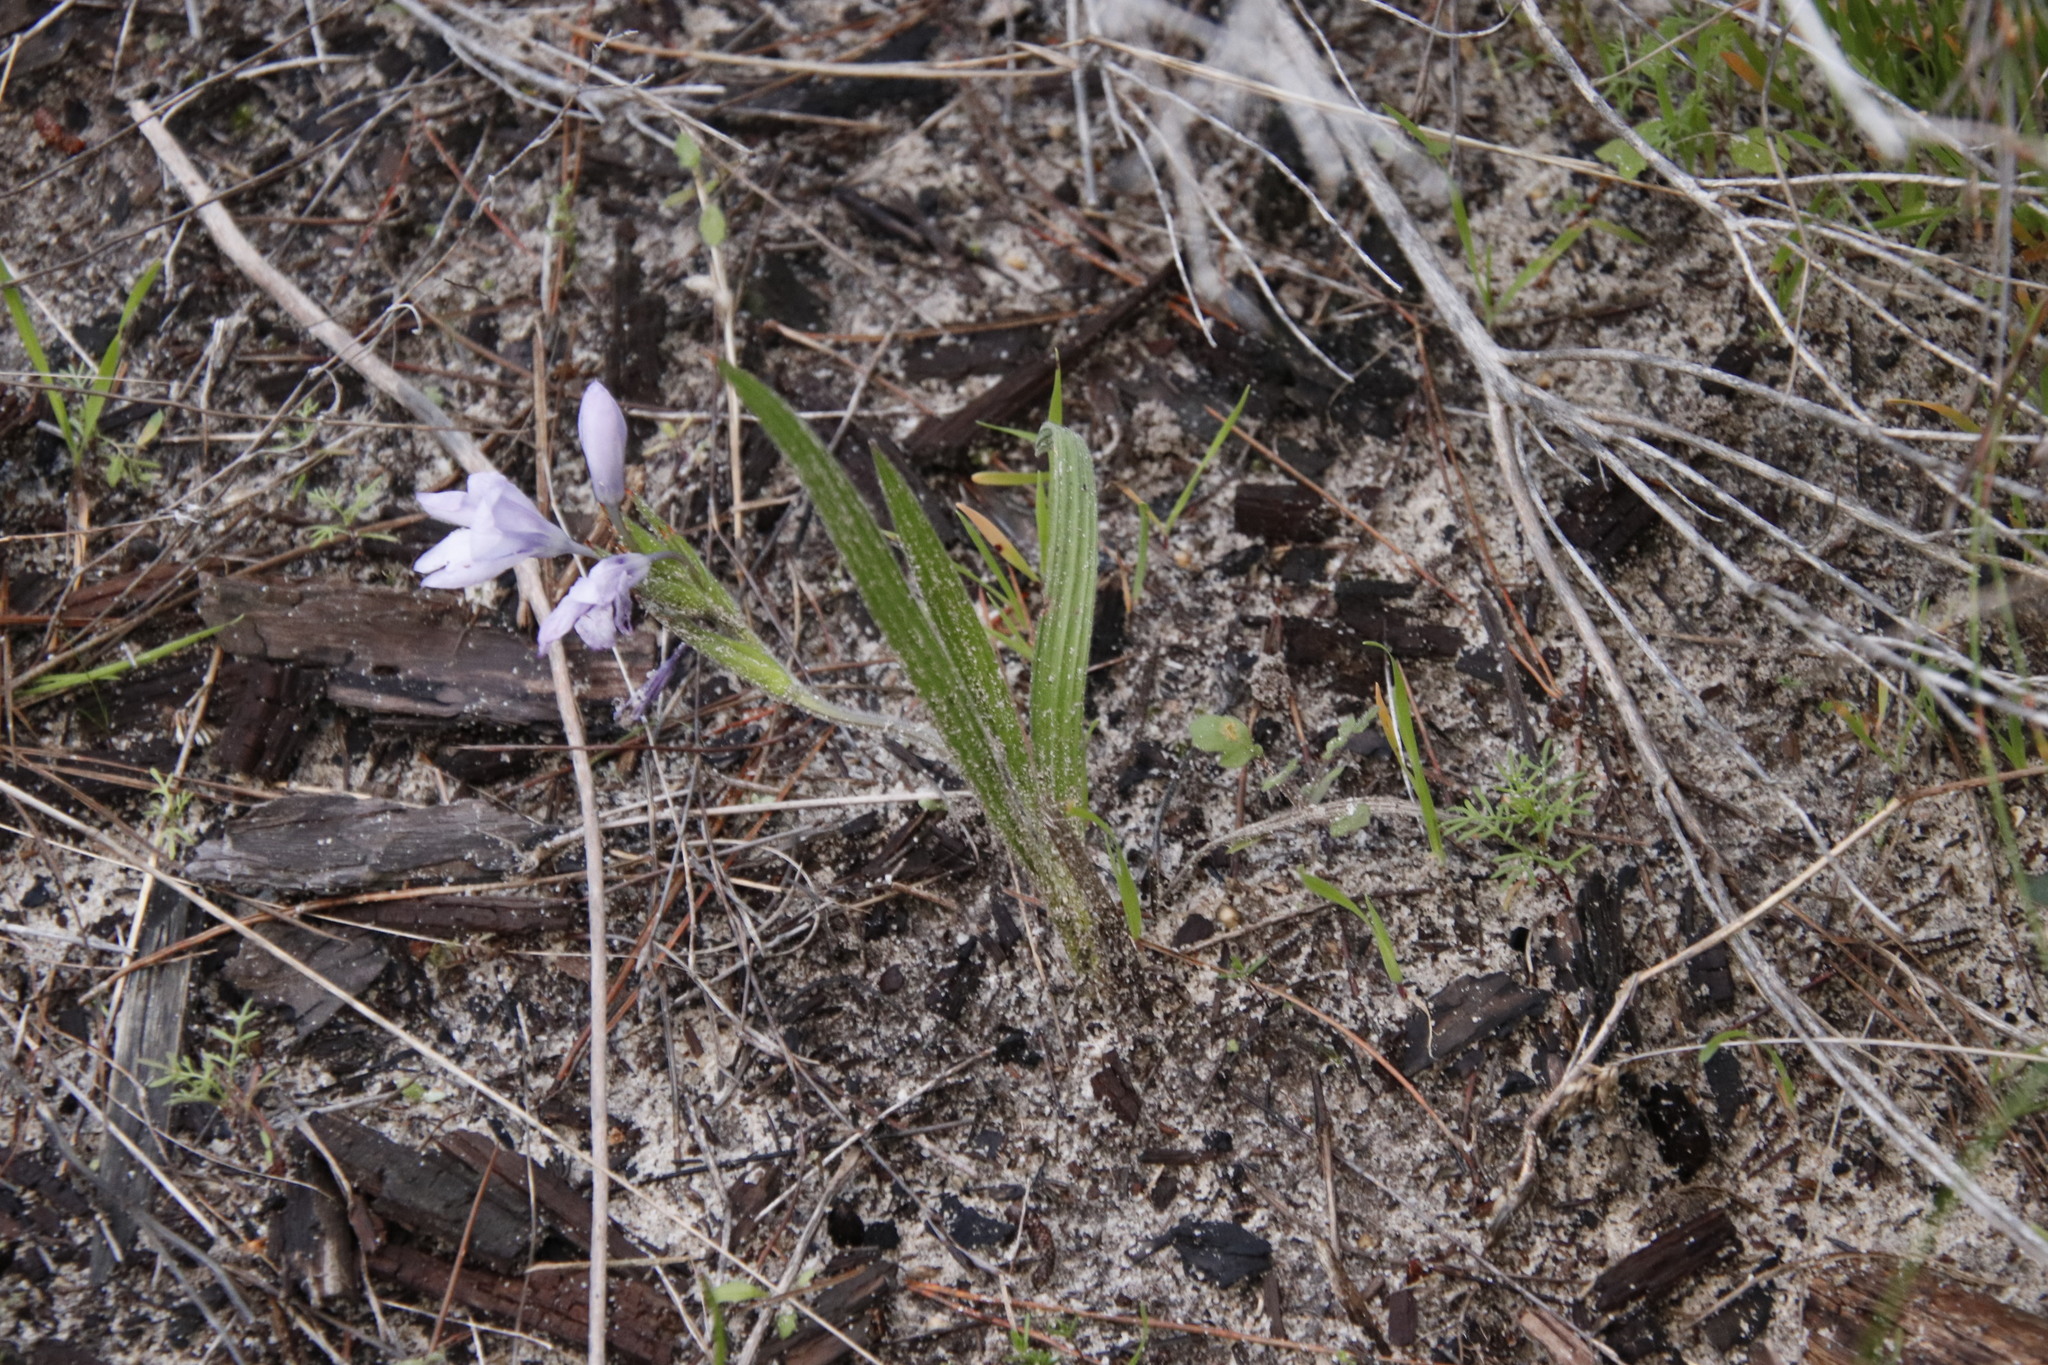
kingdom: Plantae
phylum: Tracheophyta
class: Liliopsida
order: Asparagales
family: Iridaceae
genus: Babiana
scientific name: Babiana villosula
